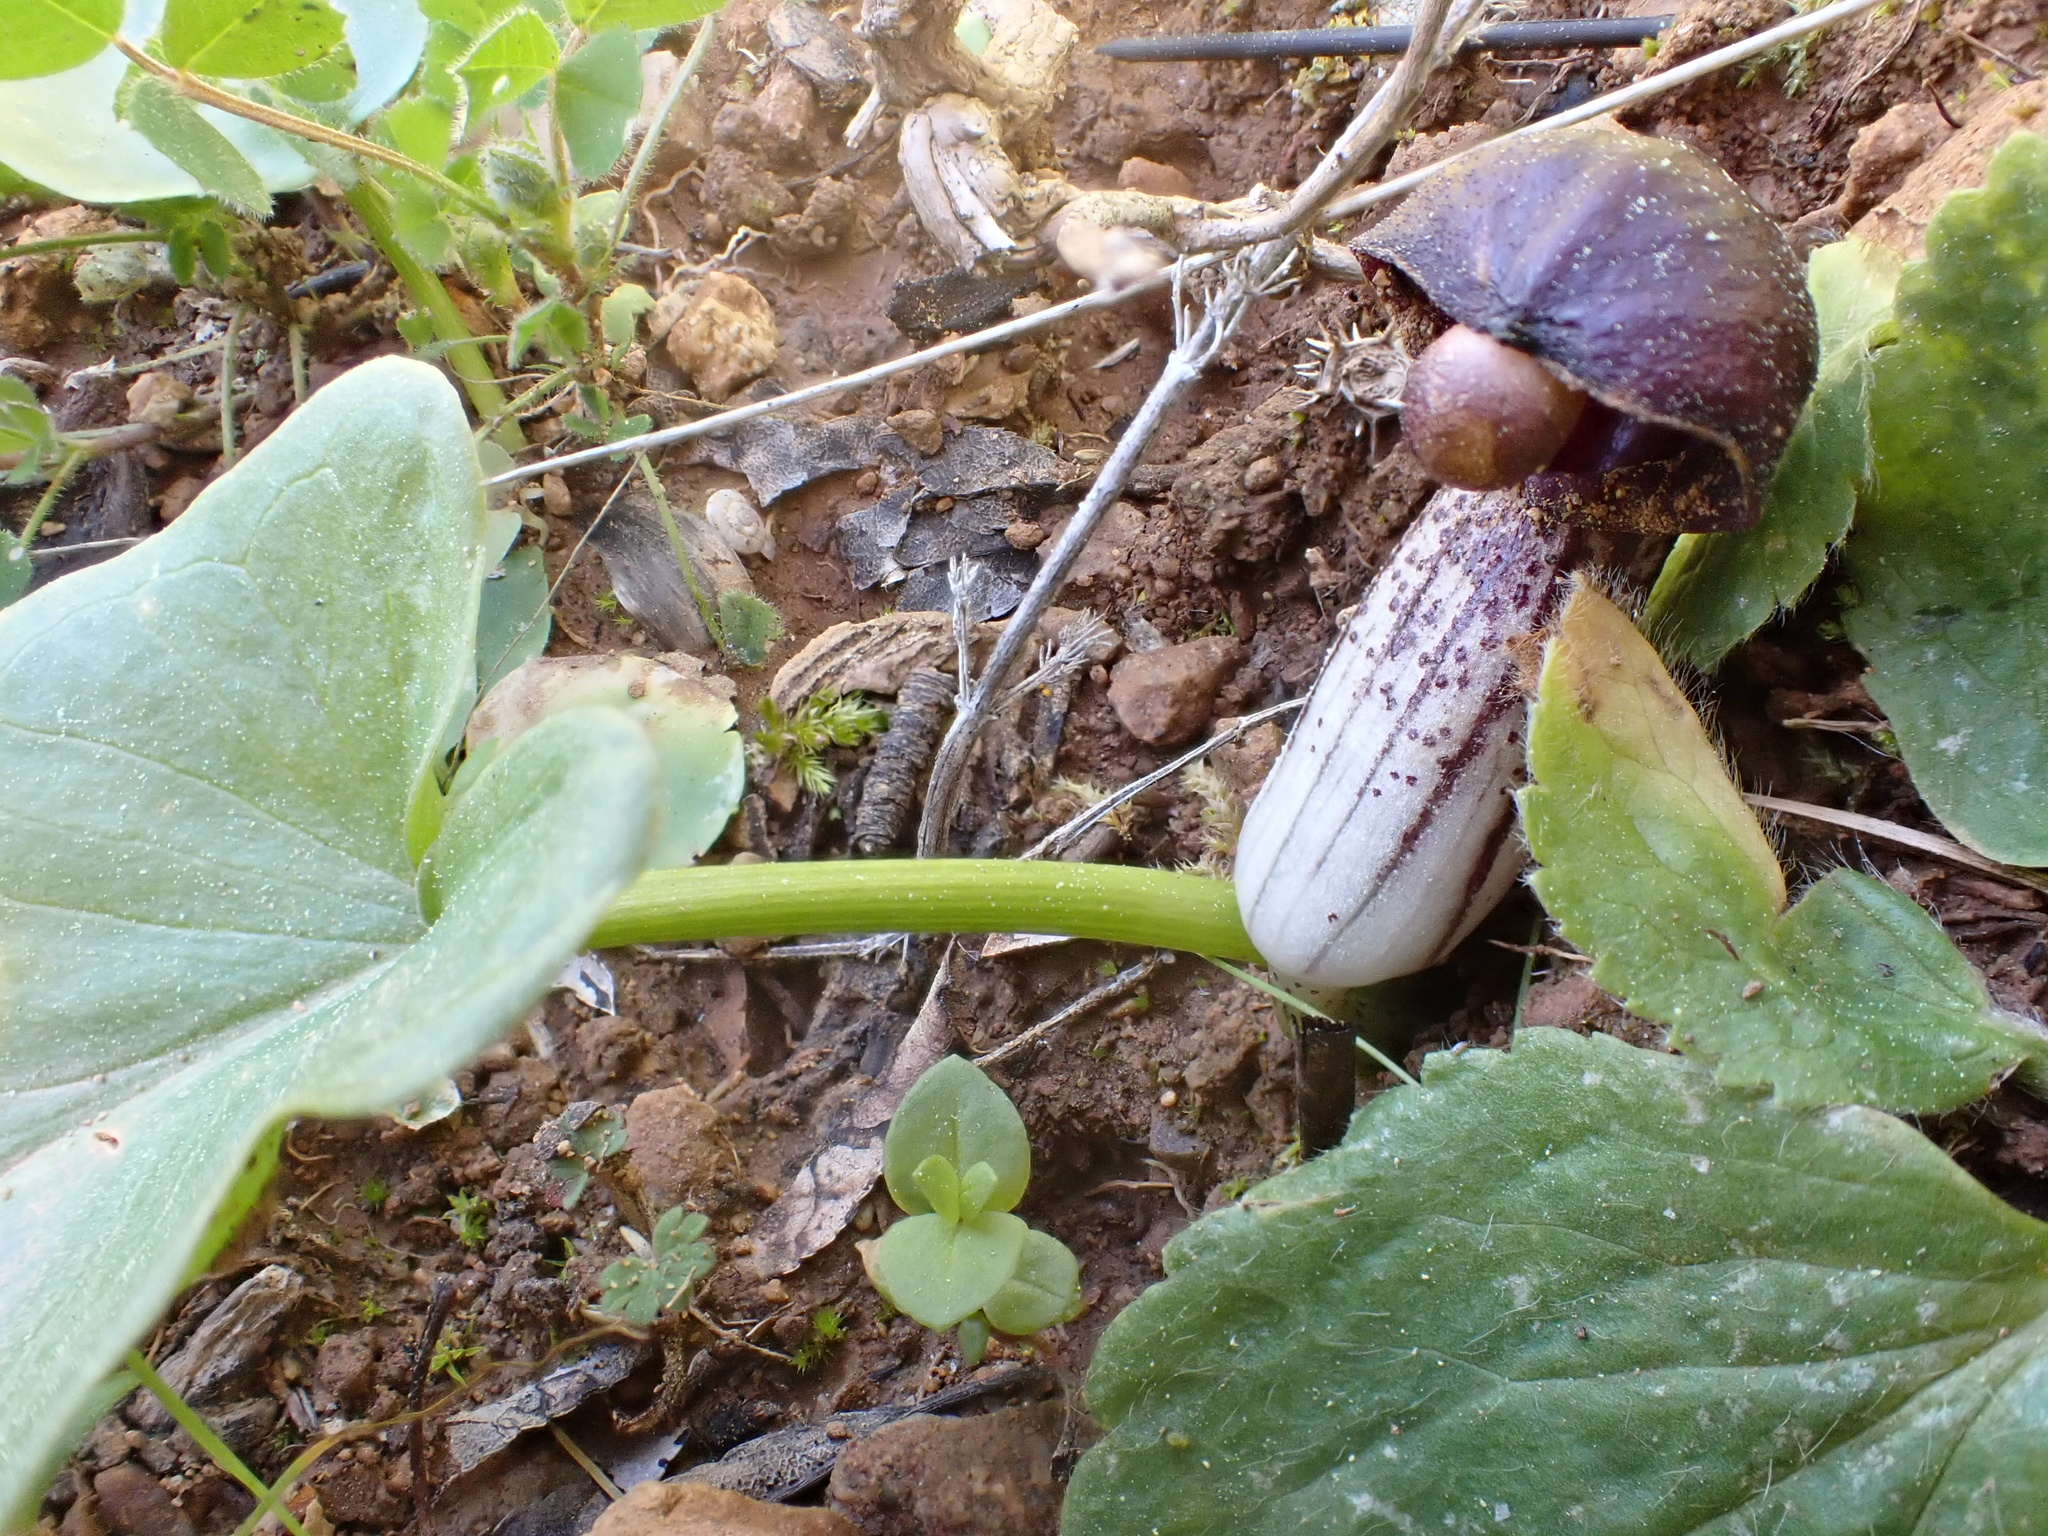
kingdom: Plantae
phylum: Tracheophyta
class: Liliopsida
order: Alismatales
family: Araceae
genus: Arisarum
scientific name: Arisarum simorrhinum
